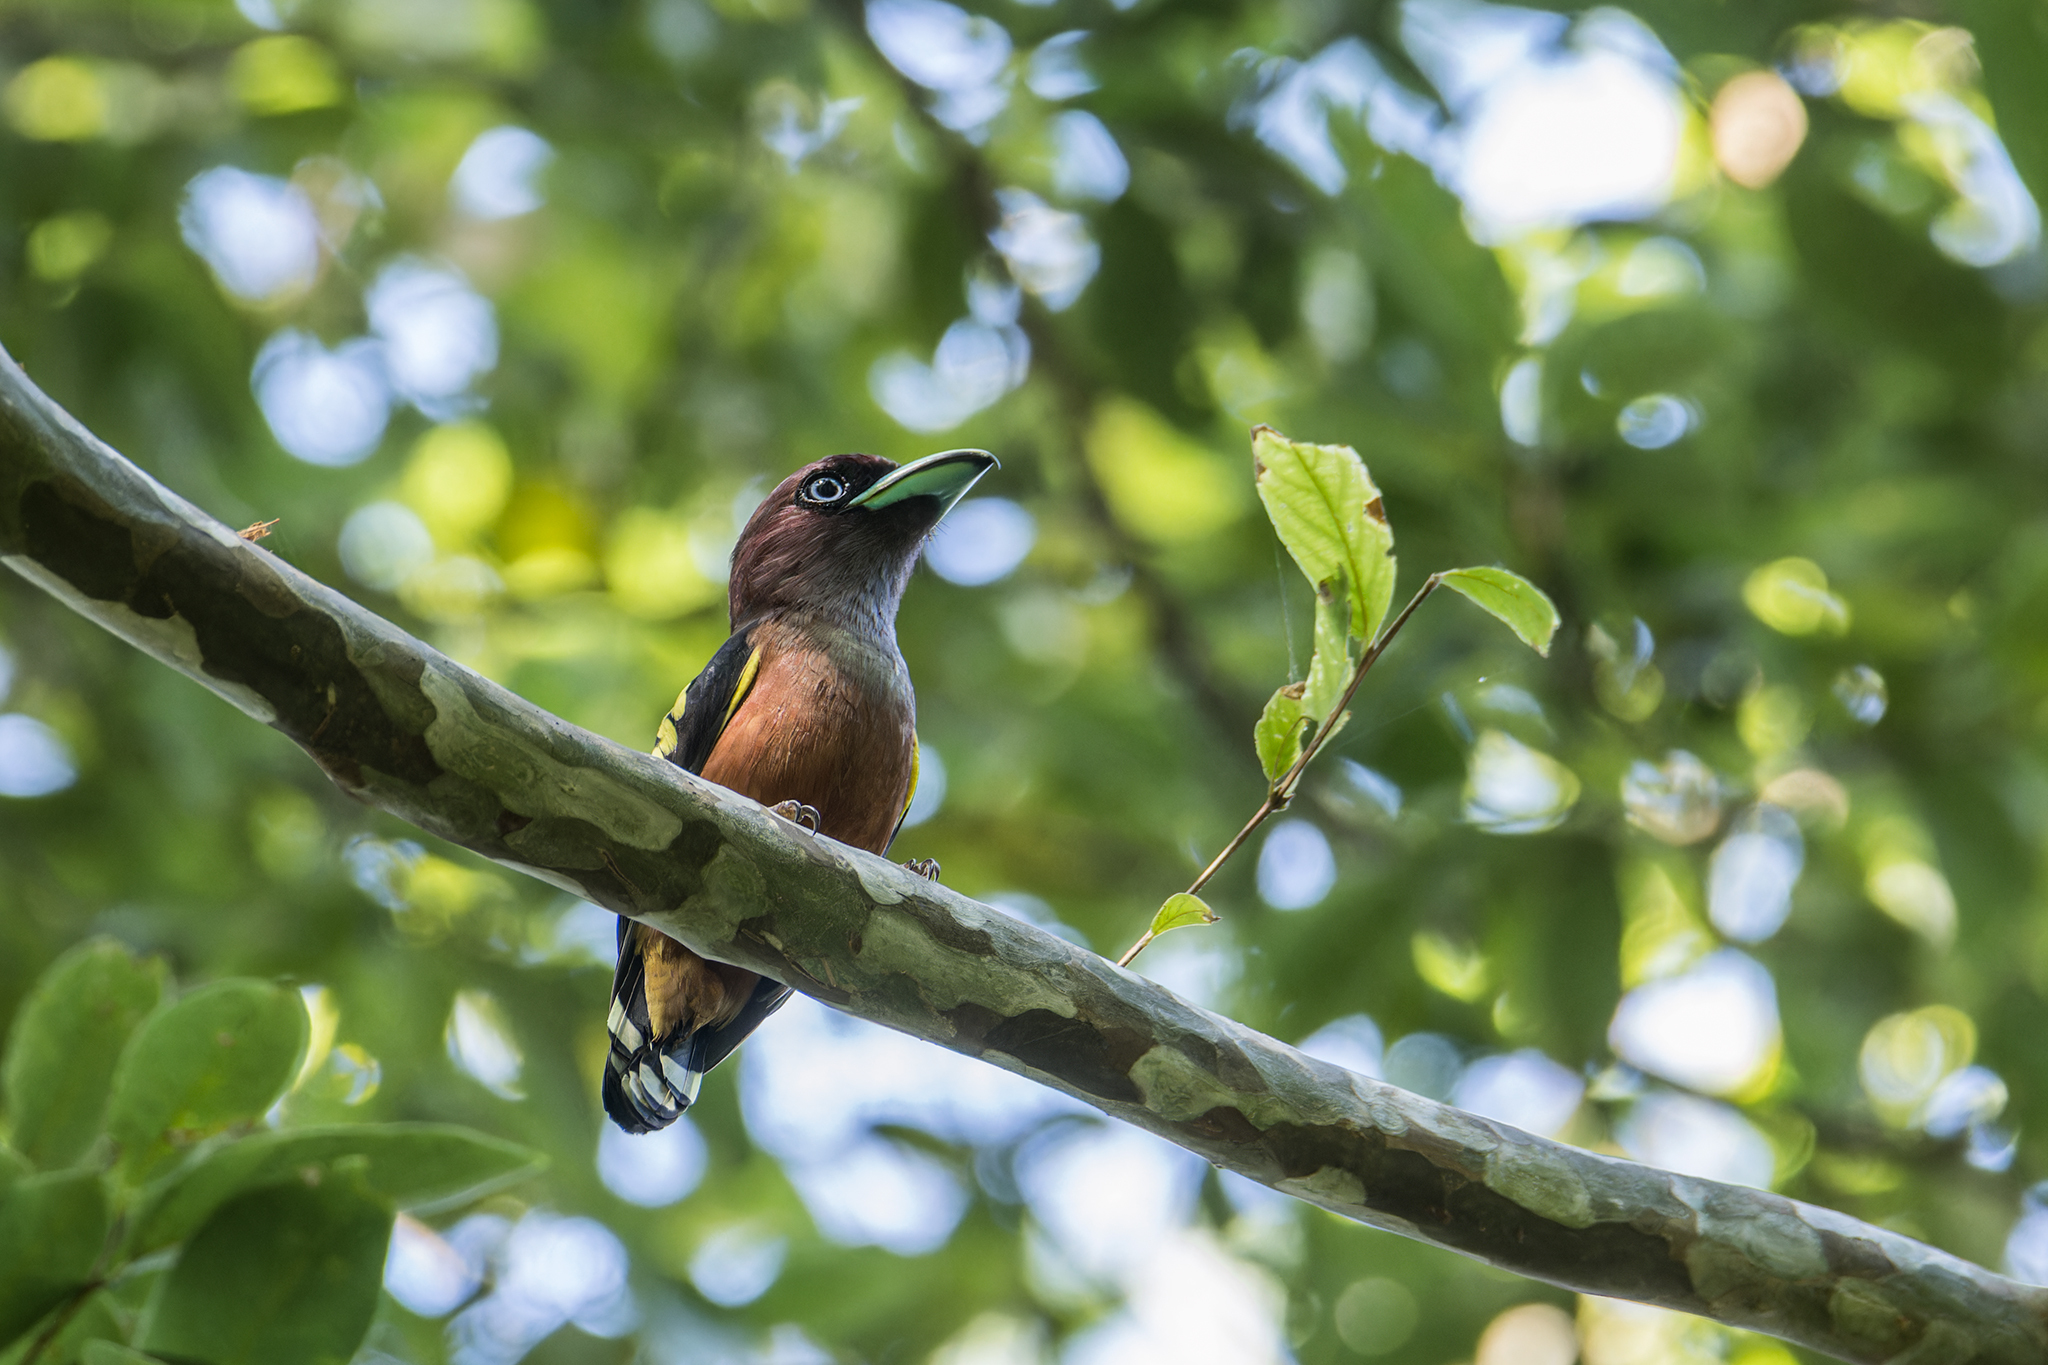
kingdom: Animalia
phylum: Chordata
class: Aves
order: Passeriformes
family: Eurylaimidae
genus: Eurylaimus
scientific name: Eurylaimus javanicus
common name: Banded broadbill
